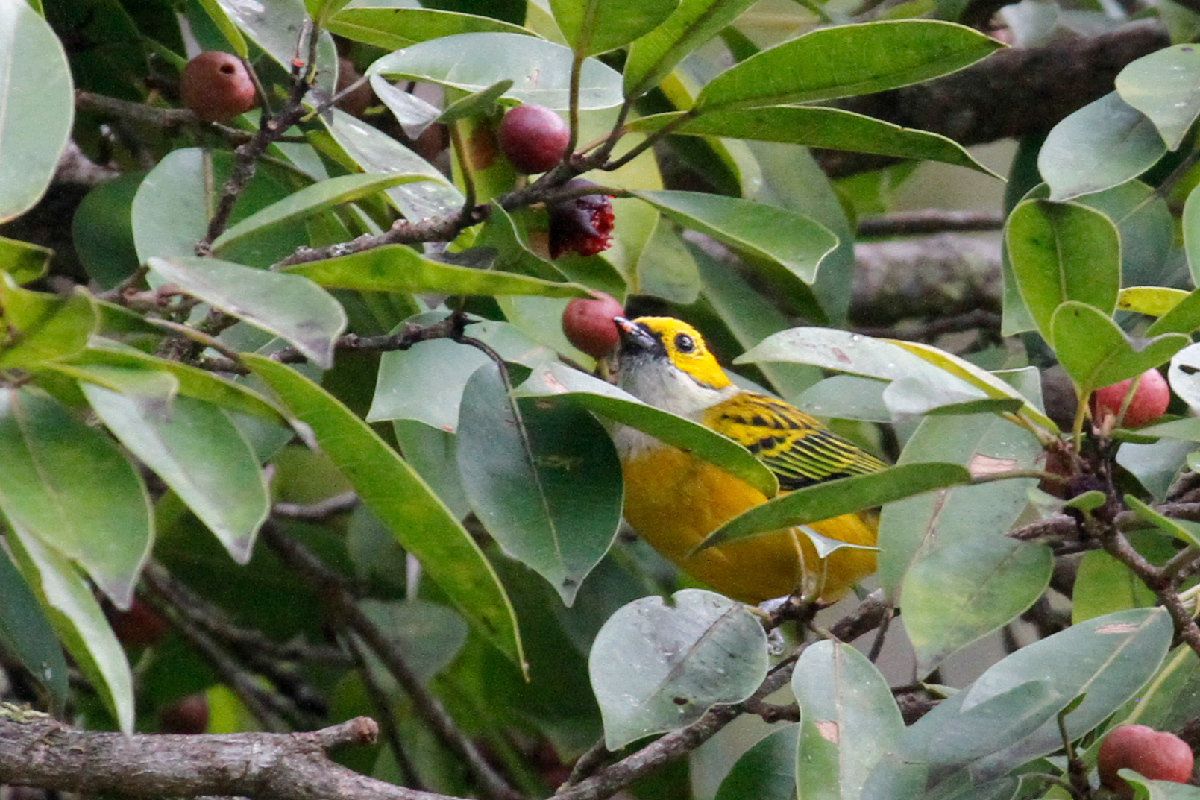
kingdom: Animalia
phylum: Chordata
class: Aves
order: Passeriformes
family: Thraupidae
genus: Tangara
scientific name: Tangara icterocephala
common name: Silver-throated tanager
